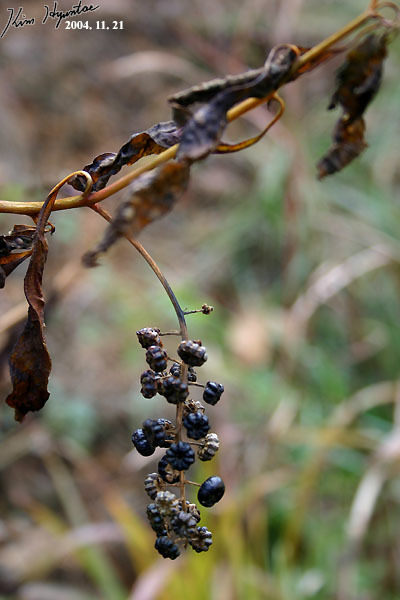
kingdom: Plantae
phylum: Tracheophyta
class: Magnoliopsida
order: Caryophyllales
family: Phytolaccaceae
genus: Phytolacca
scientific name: Phytolacca americana
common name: American pokeweed
